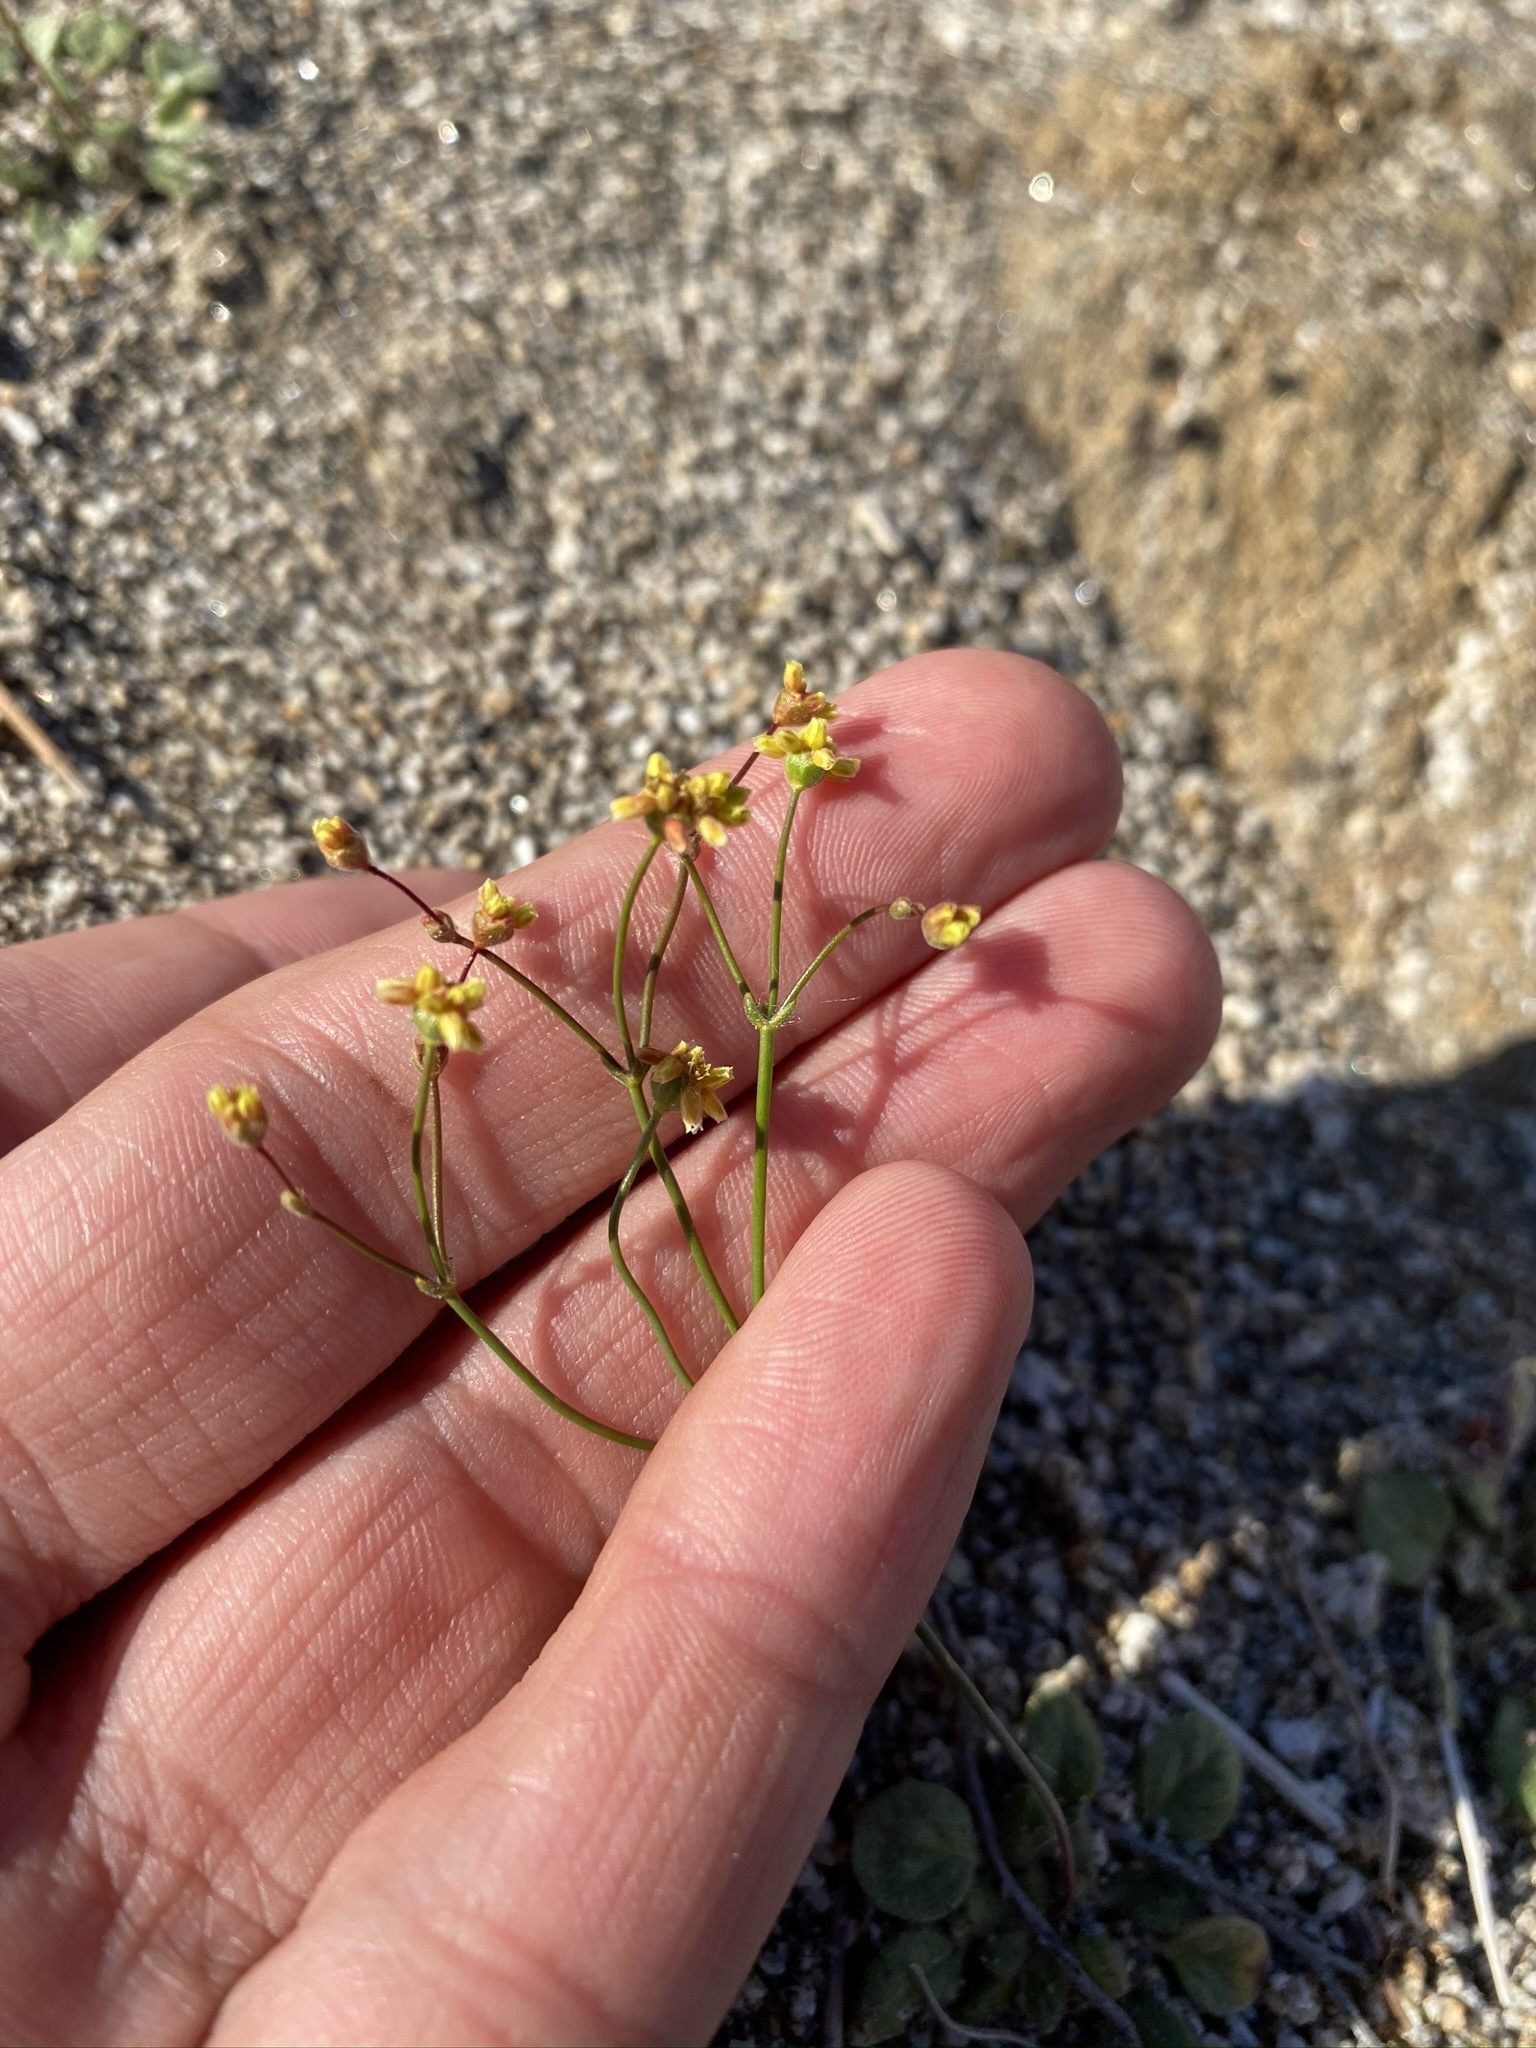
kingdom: Plantae
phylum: Tracheophyta
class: Magnoliopsida
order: Caryophyllales
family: Polygonaceae
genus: Eriogonum
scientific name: Eriogonum pusillum
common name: Yellow turbans
